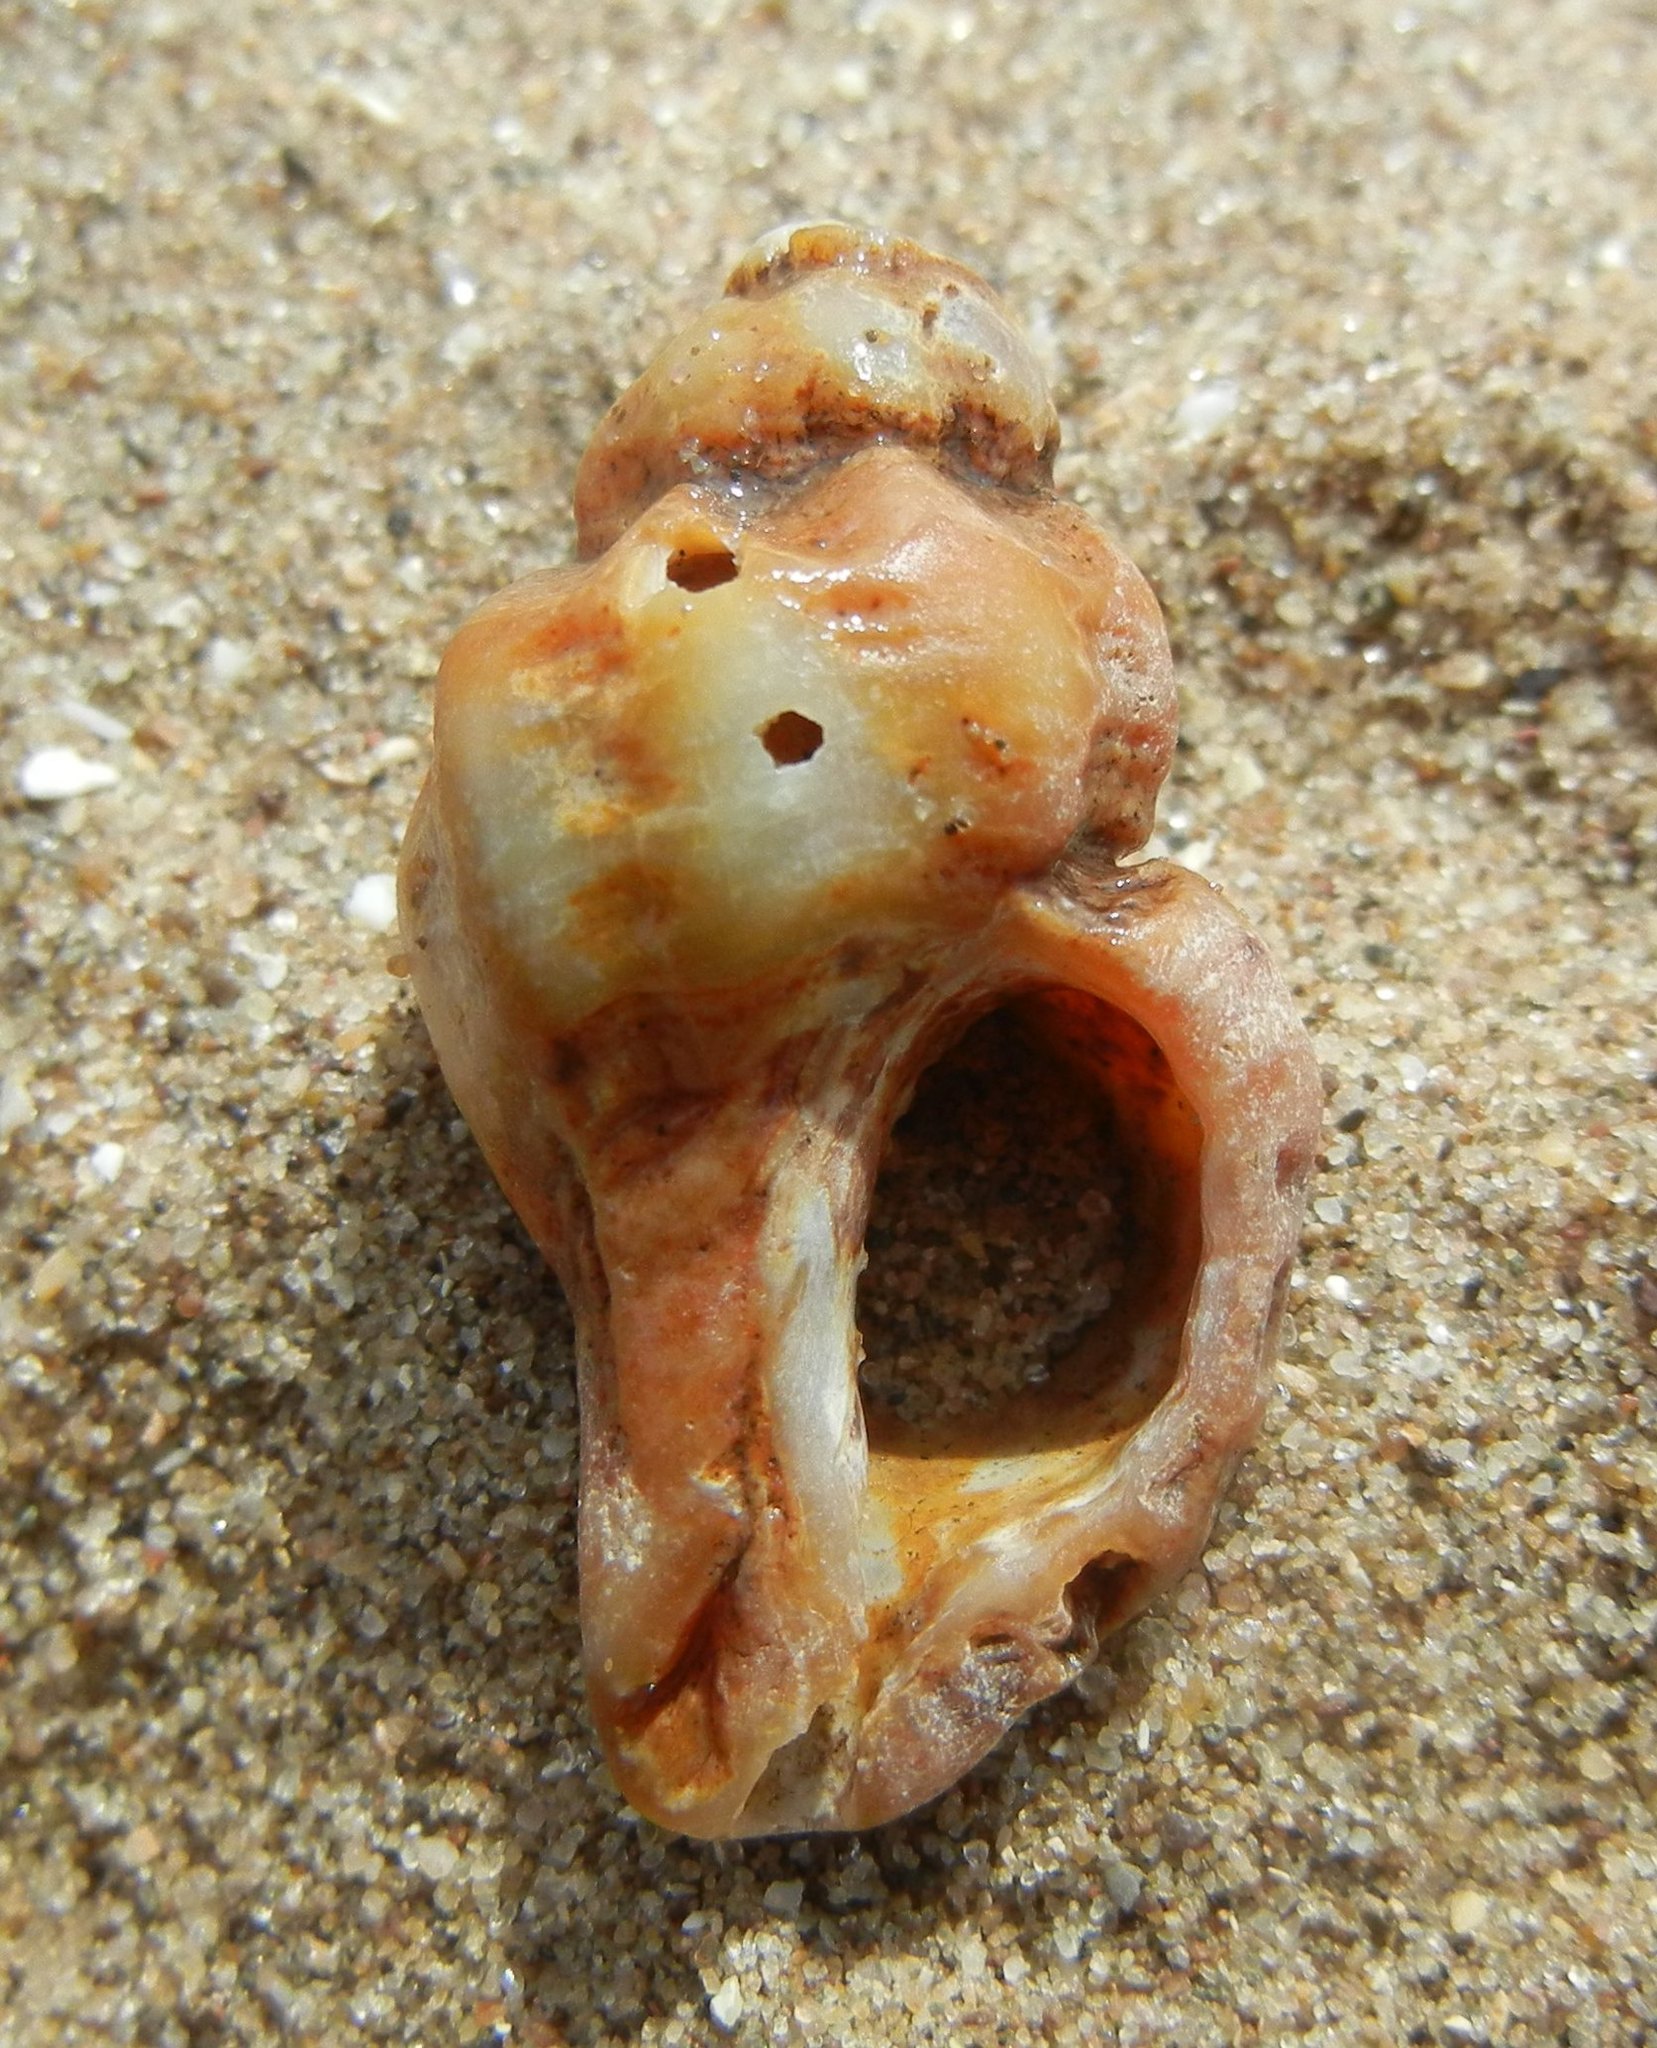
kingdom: Animalia
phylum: Mollusca
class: Gastropoda
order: Neogastropoda
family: Muricidae
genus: Ocenebra
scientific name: Ocenebra erinaceus
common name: European sting winkle
